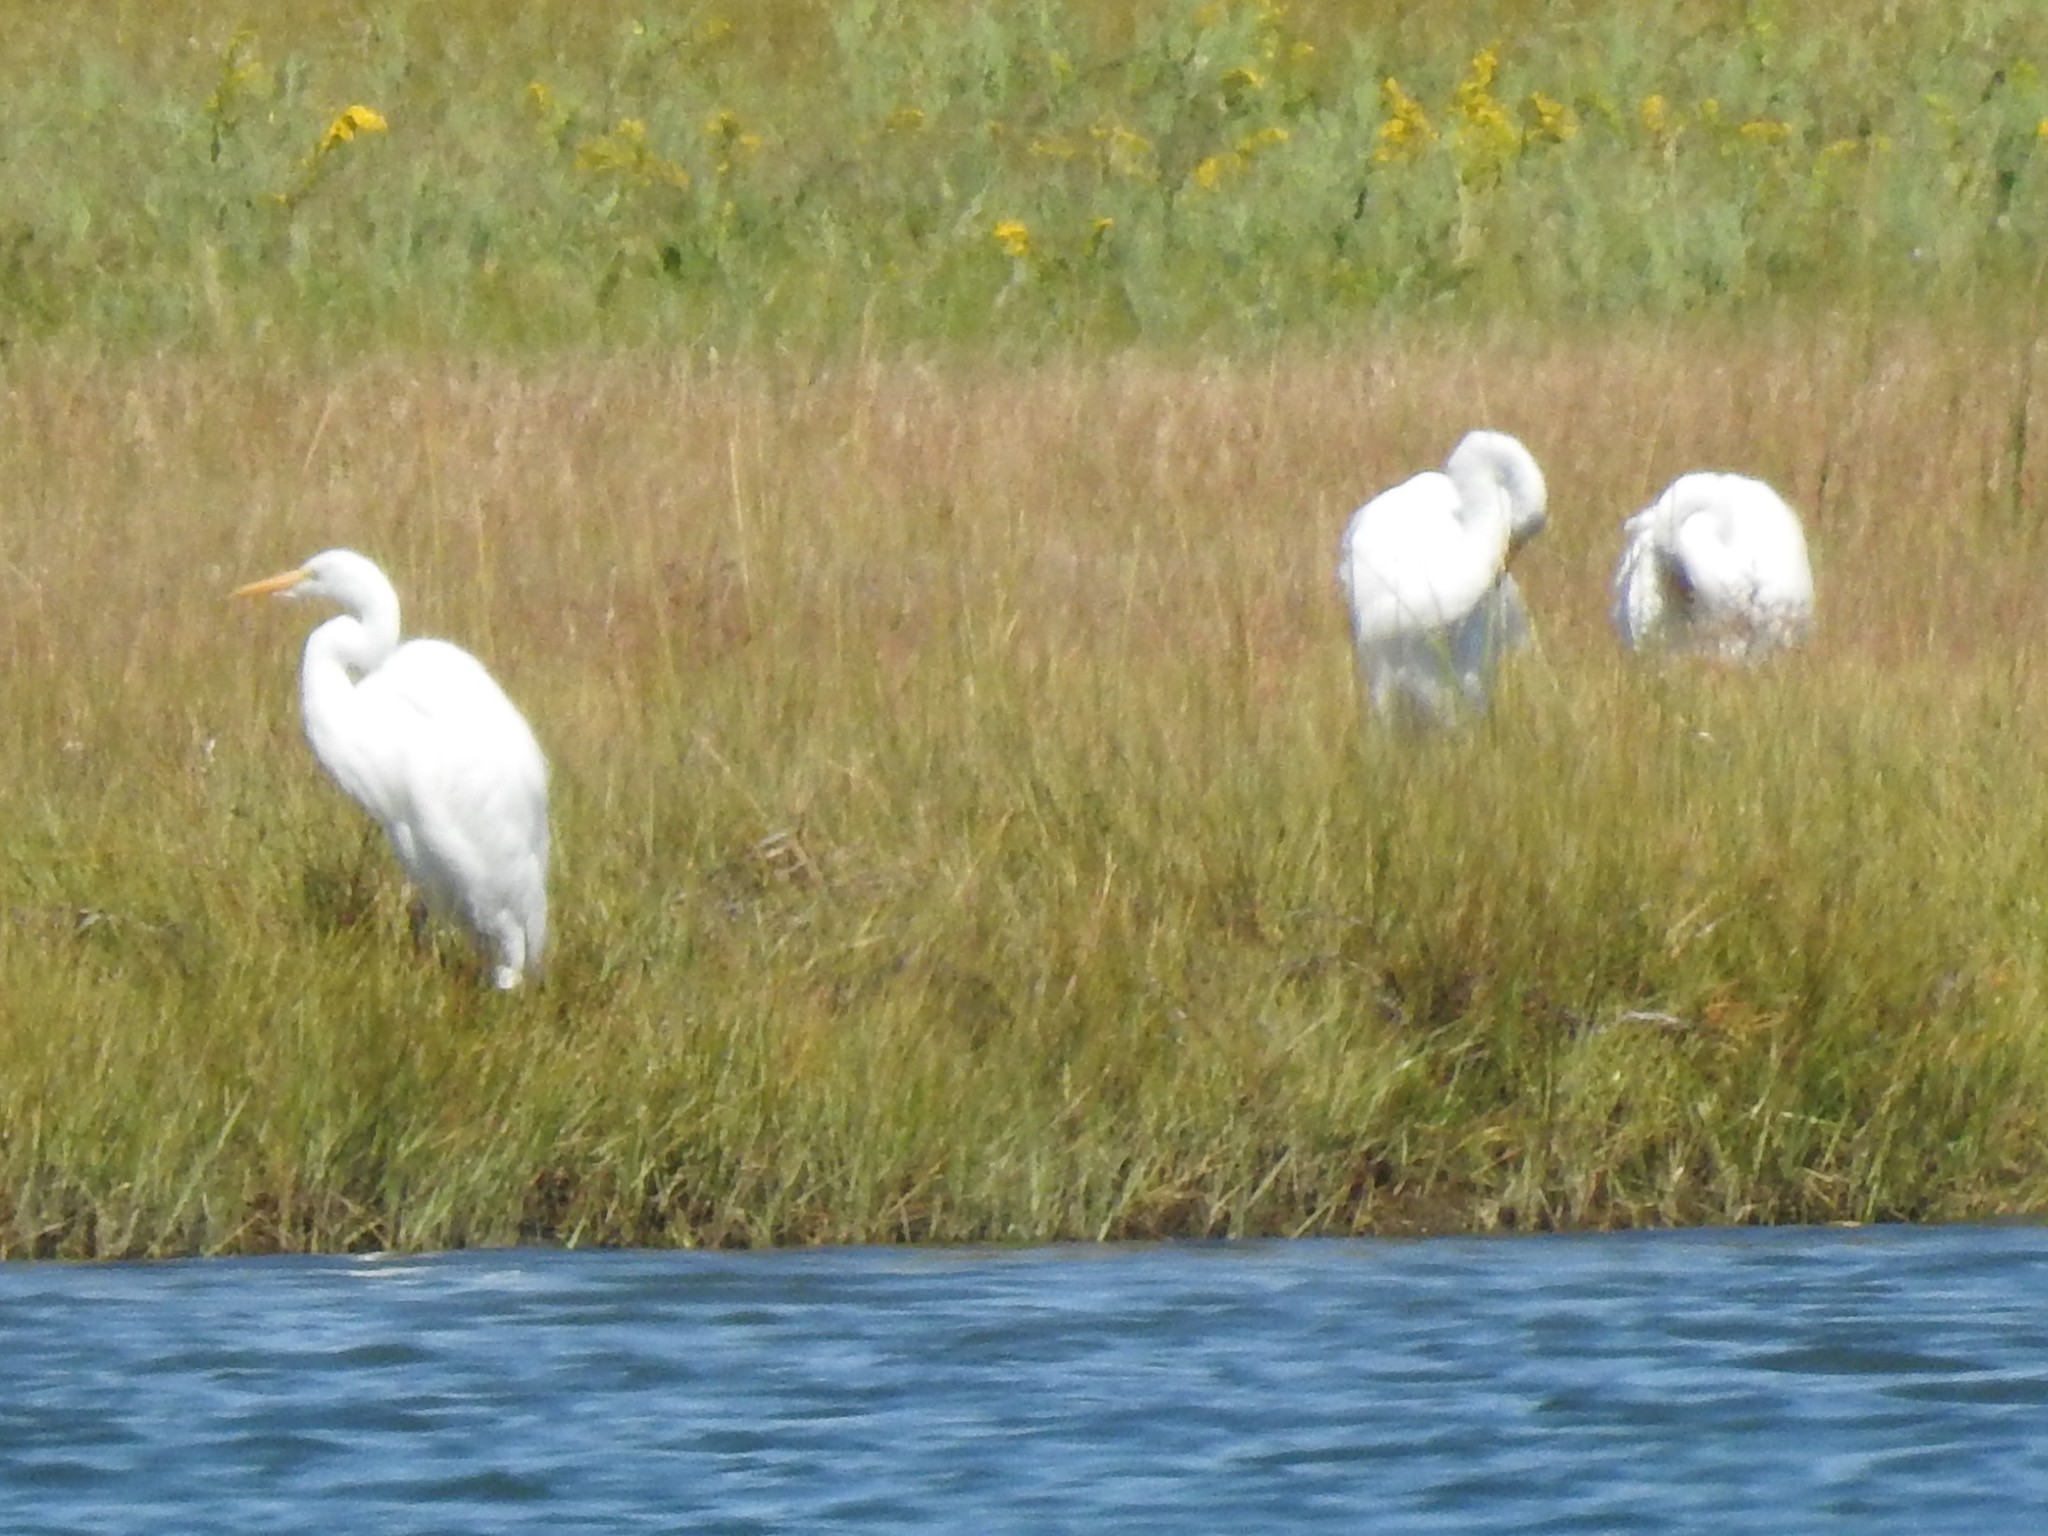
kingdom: Animalia
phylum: Chordata
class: Aves
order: Pelecaniformes
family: Ardeidae
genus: Ardea
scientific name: Ardea alba
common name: Great egret
